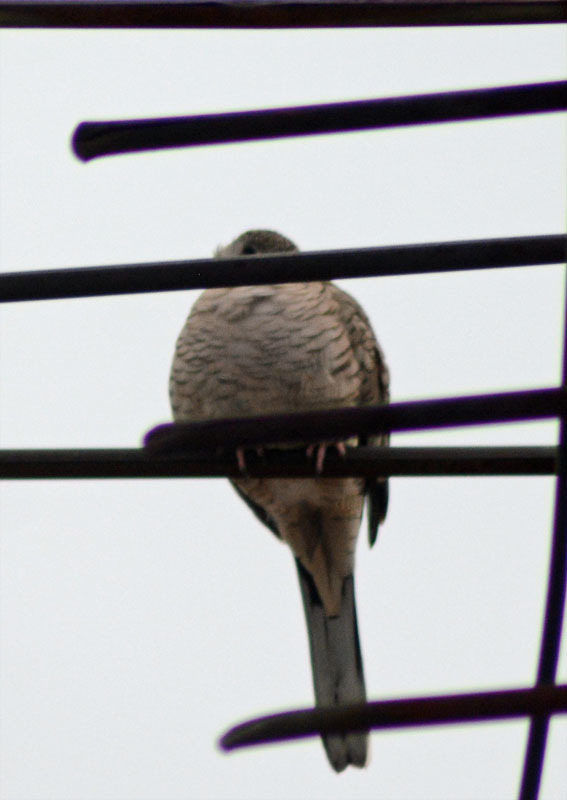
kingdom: Animalia
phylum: Chordata
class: Aves
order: Columbiformes
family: Columbidae
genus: Columbina
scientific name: Columbina inca
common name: Inca dove
